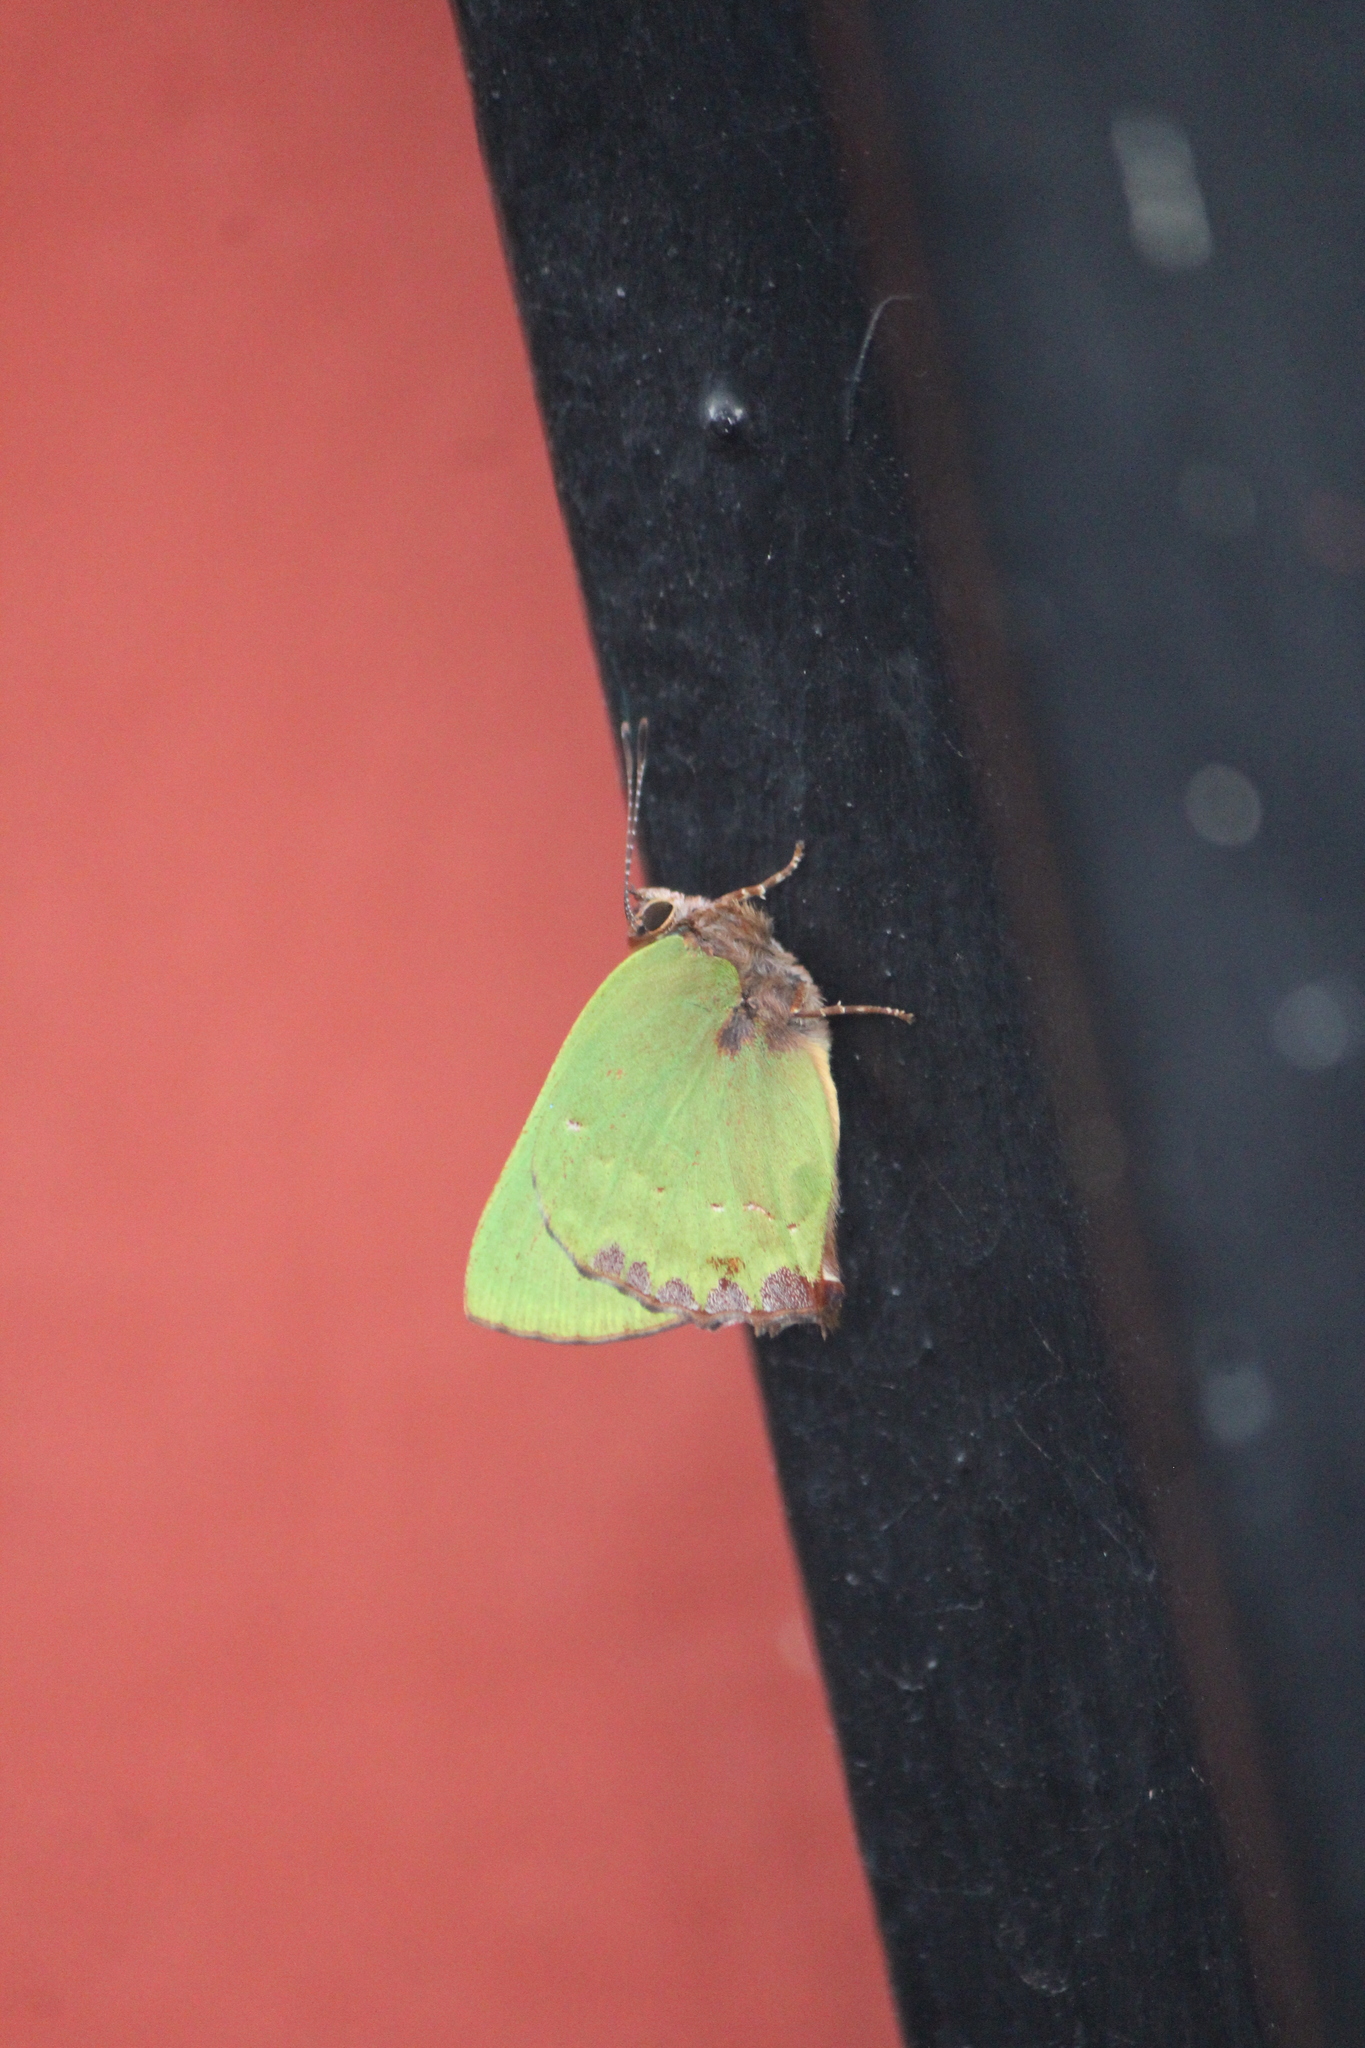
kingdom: Animalia
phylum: Arthropoda
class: Insecta
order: Lepidoptera
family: Lycaenidae
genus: Cyanophrys
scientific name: Cyanophrys longula
